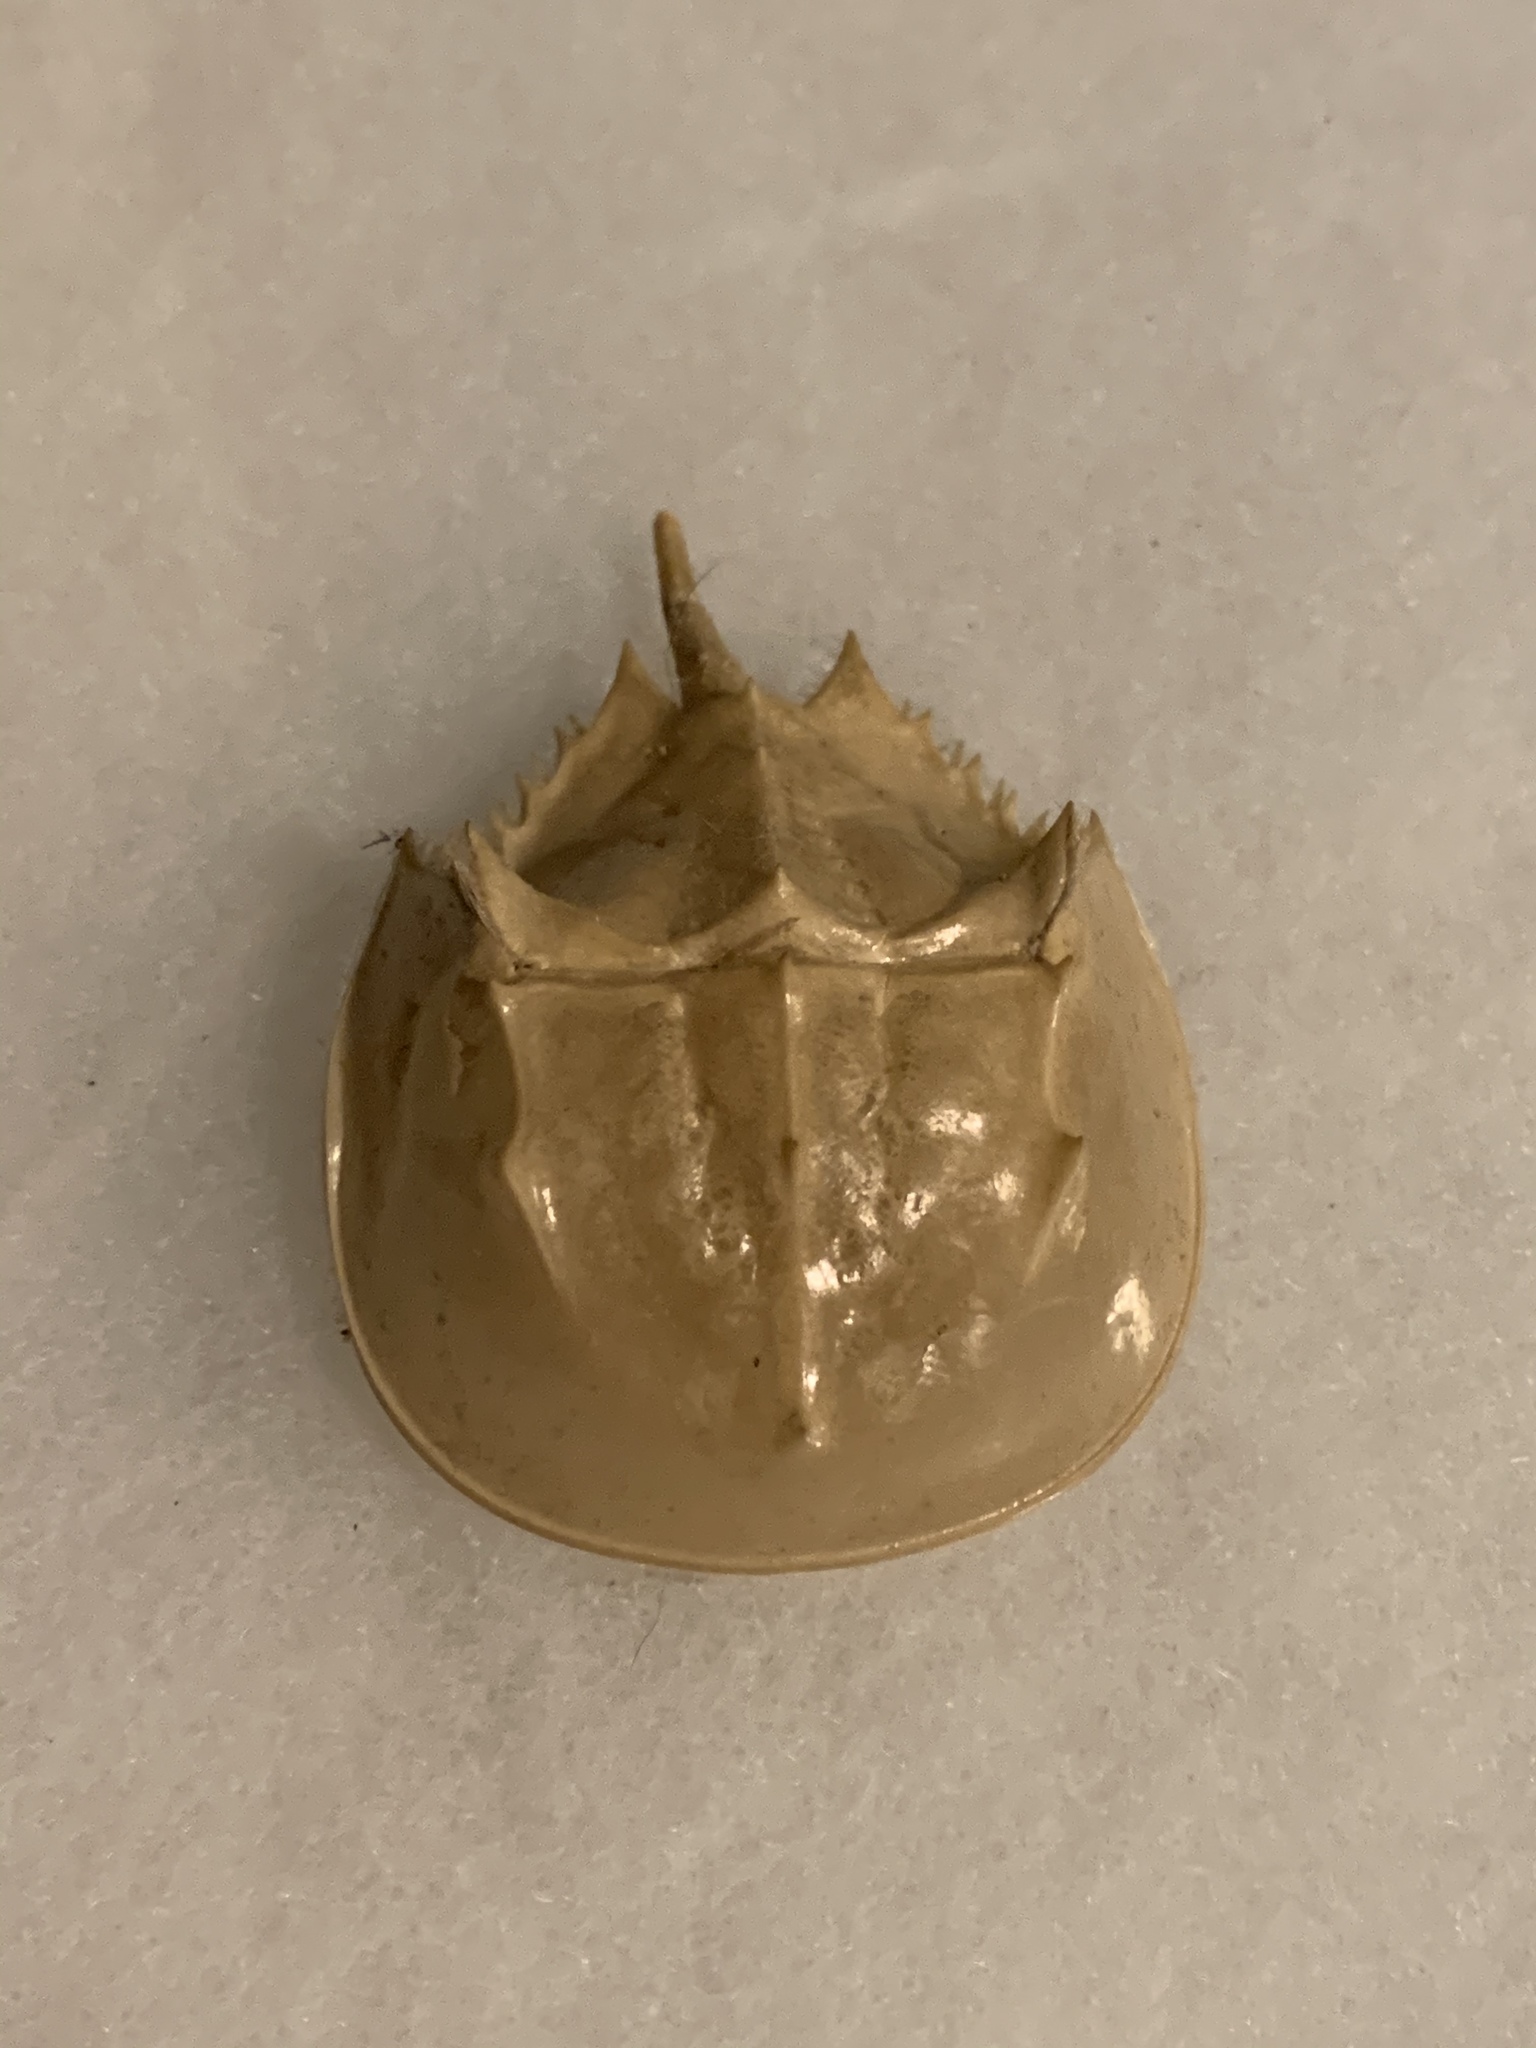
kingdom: Animalia
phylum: Arthropoda
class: Merostomata
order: Xiphosurida
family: Limulidae
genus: Limulus
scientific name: Limulus polyphemus
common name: Horseshoe crab
